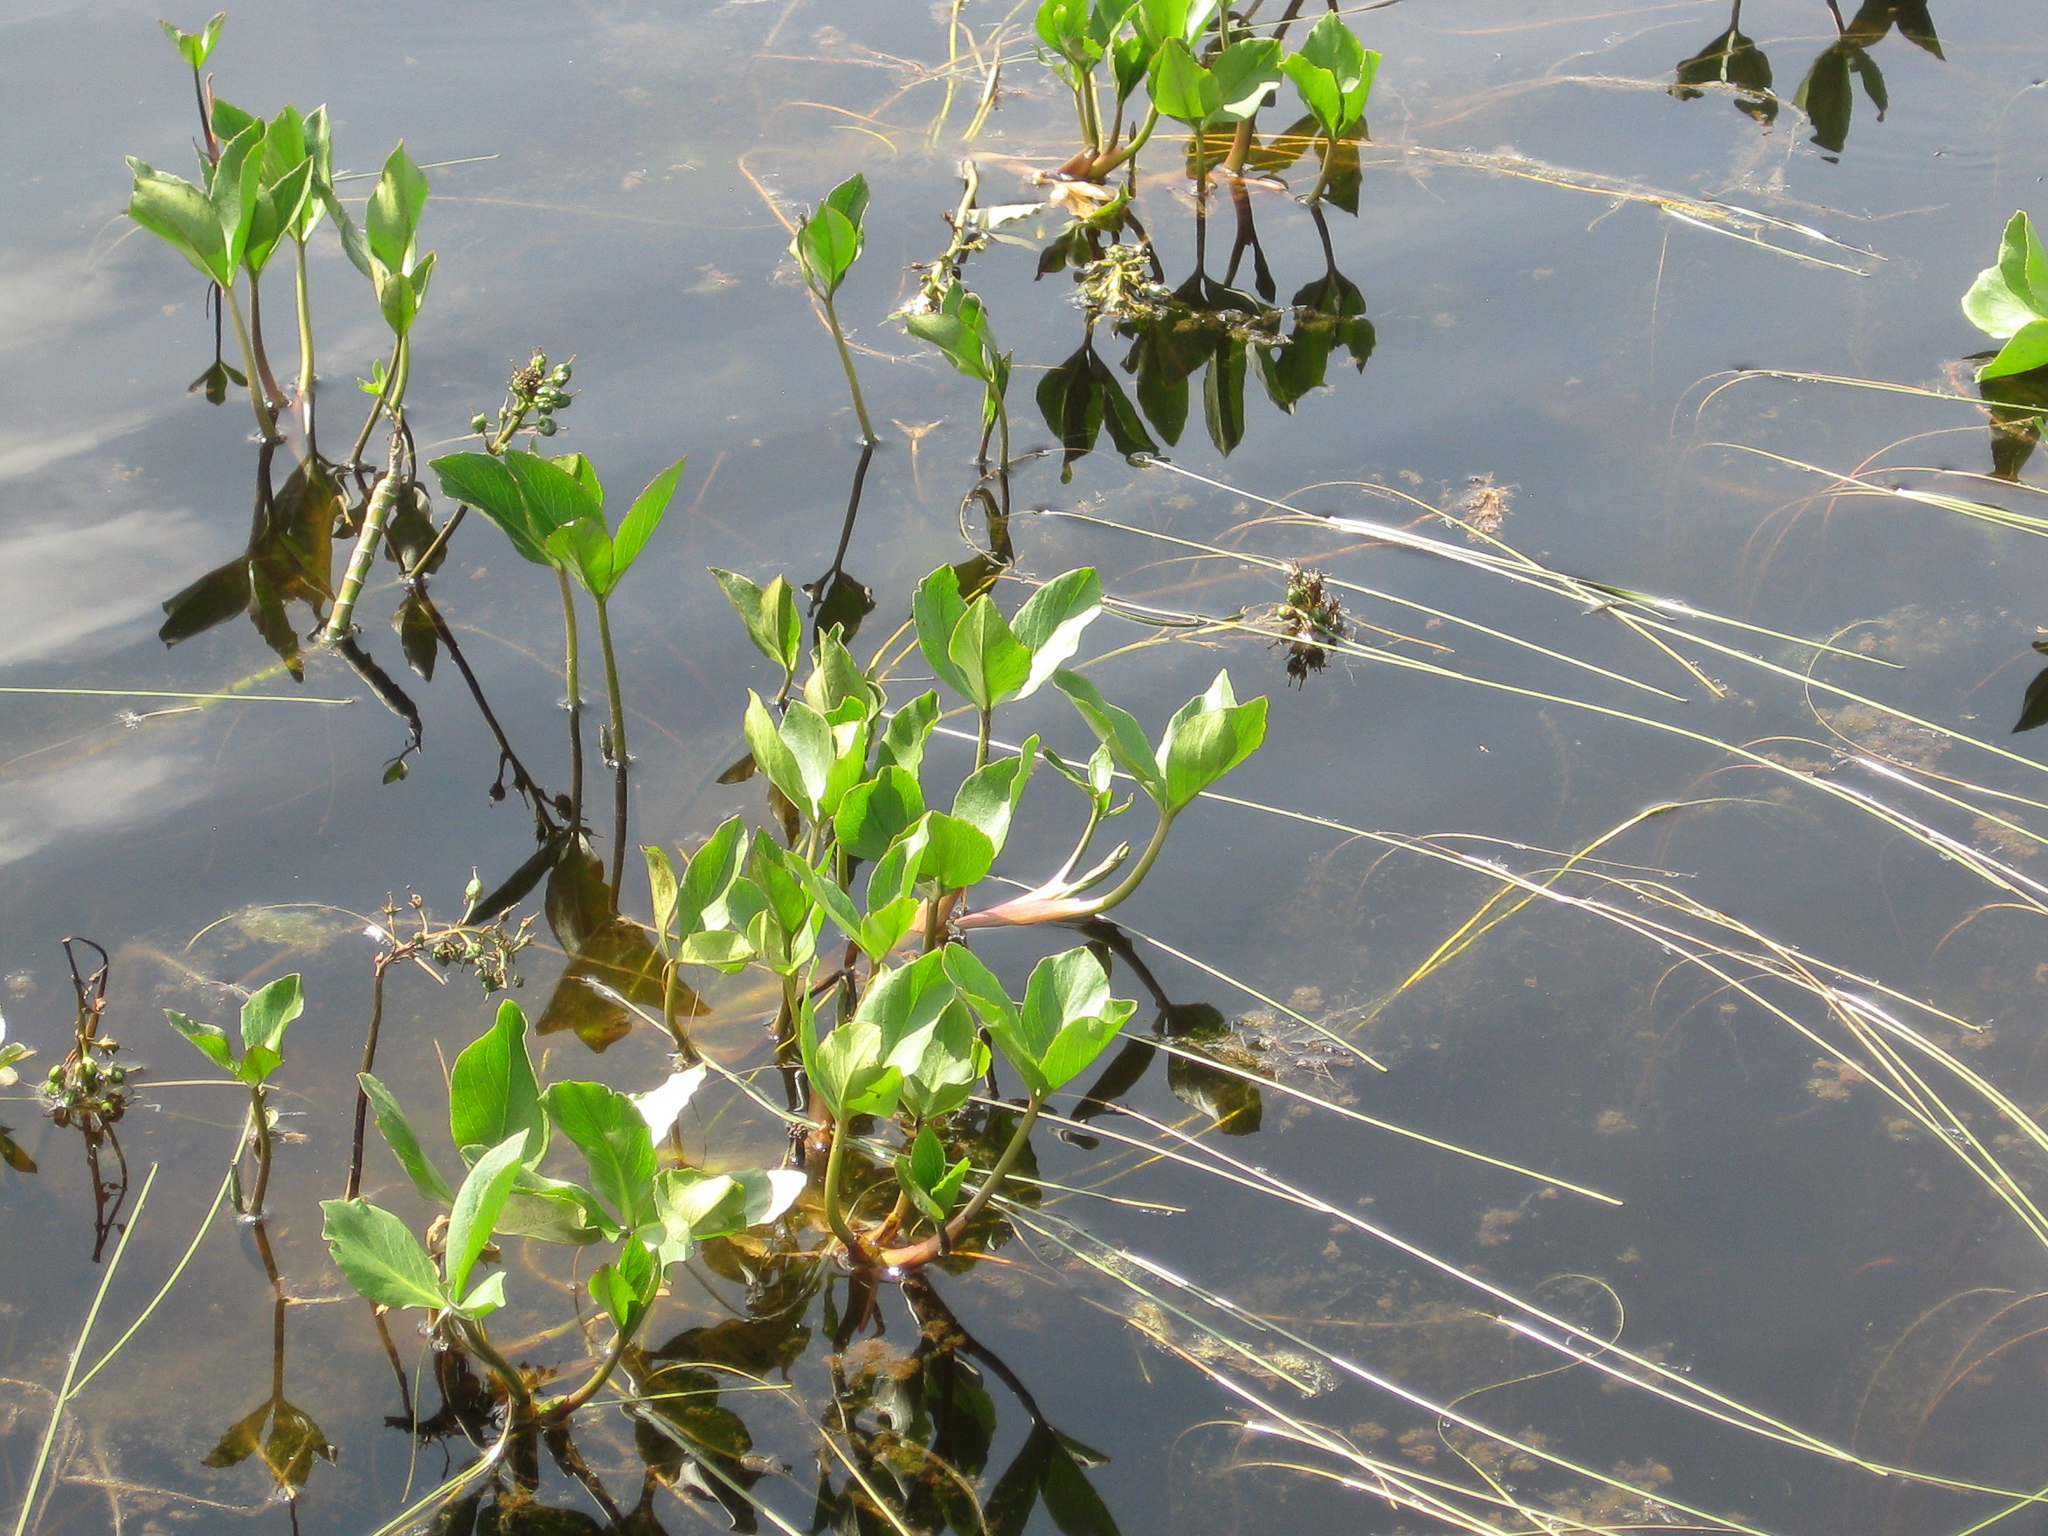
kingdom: Plantae
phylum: Tracheophyta
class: Magnoliopsida
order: Asterales
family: Menyanthaceae
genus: Menyanthes
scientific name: Menyanthes trifoliata
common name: Bogbean
